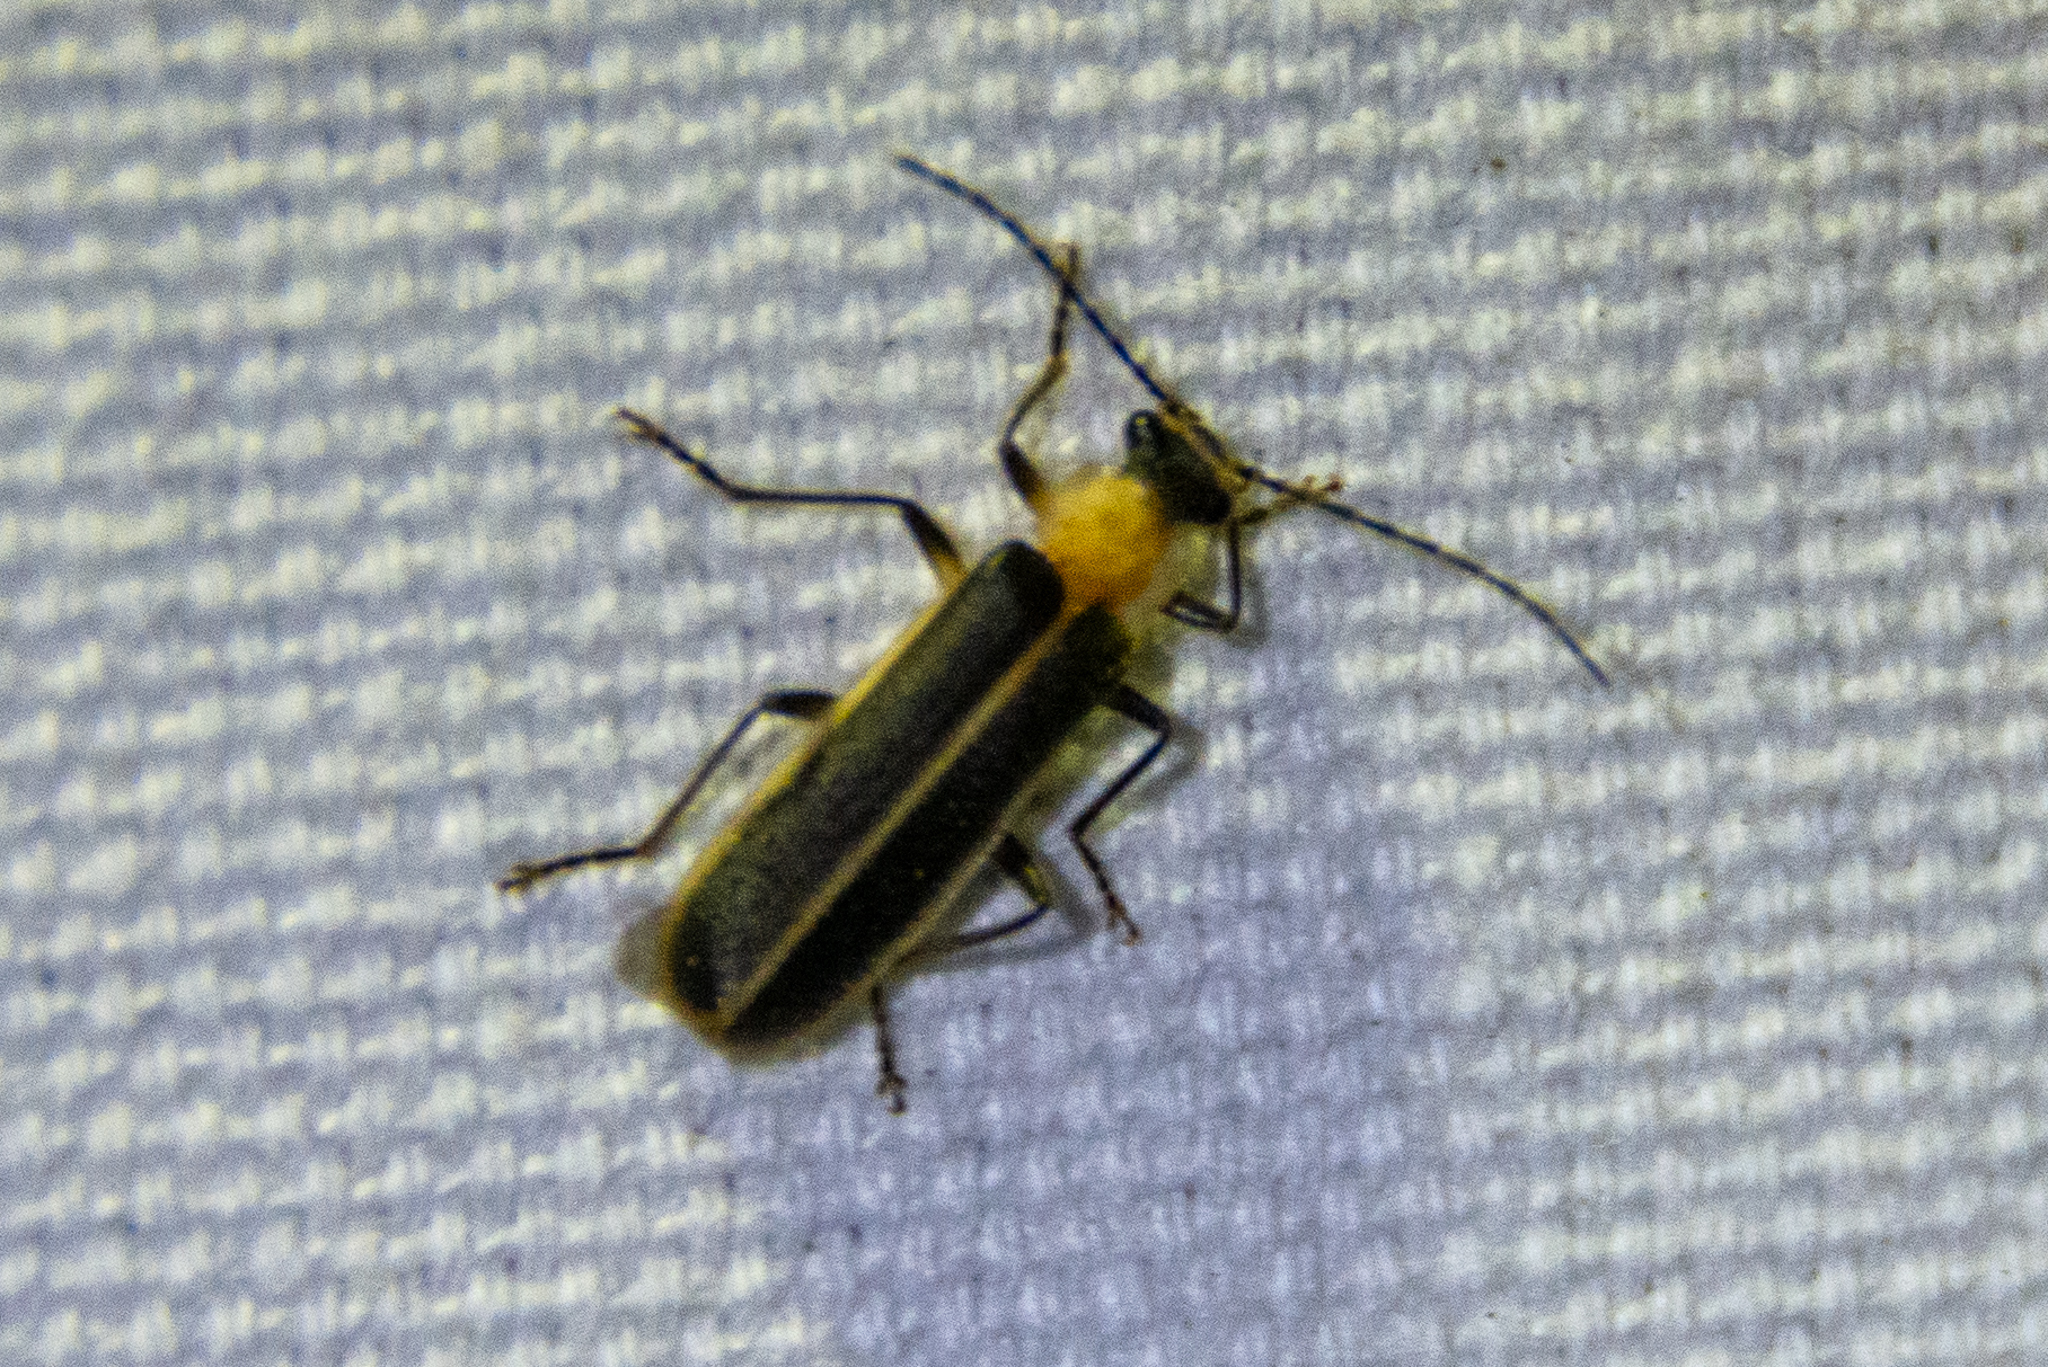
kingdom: Animalia
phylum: Arthropoda
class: Insecta
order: Coleoptera
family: Cantharidae
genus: Podabrus
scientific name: Podabrus flavicollis
